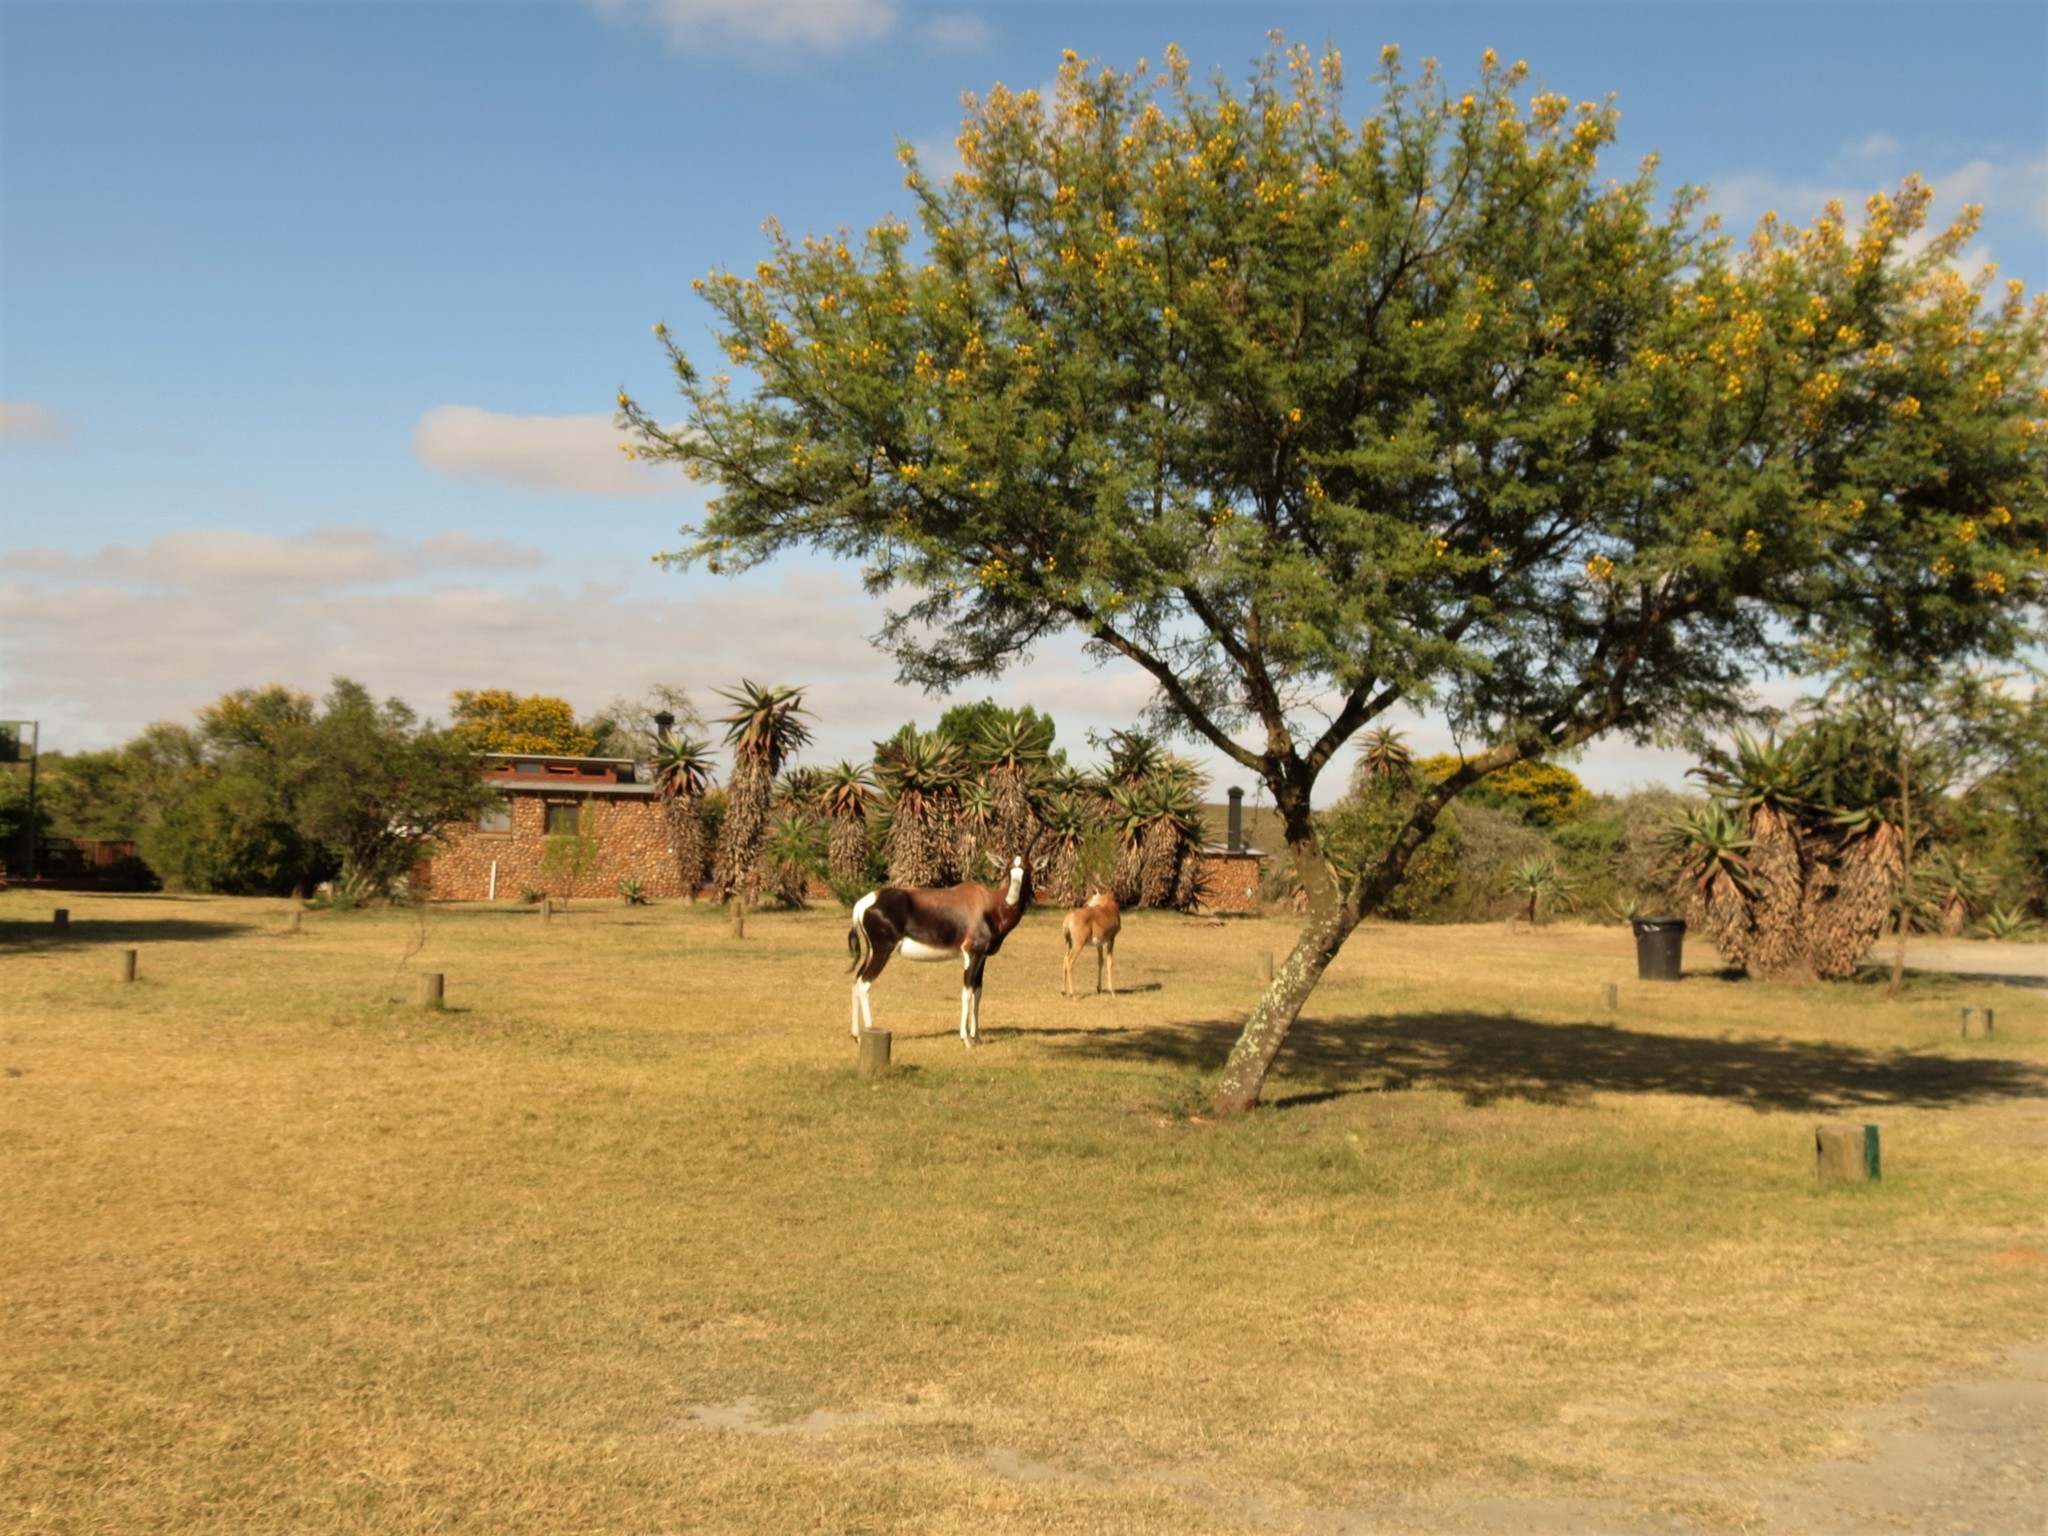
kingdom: Animalia
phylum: Chordata
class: Mammalia
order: Artiodactyla
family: Bovidae
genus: Damaliscus
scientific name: Damaliscus pygargus
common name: Bontebok
